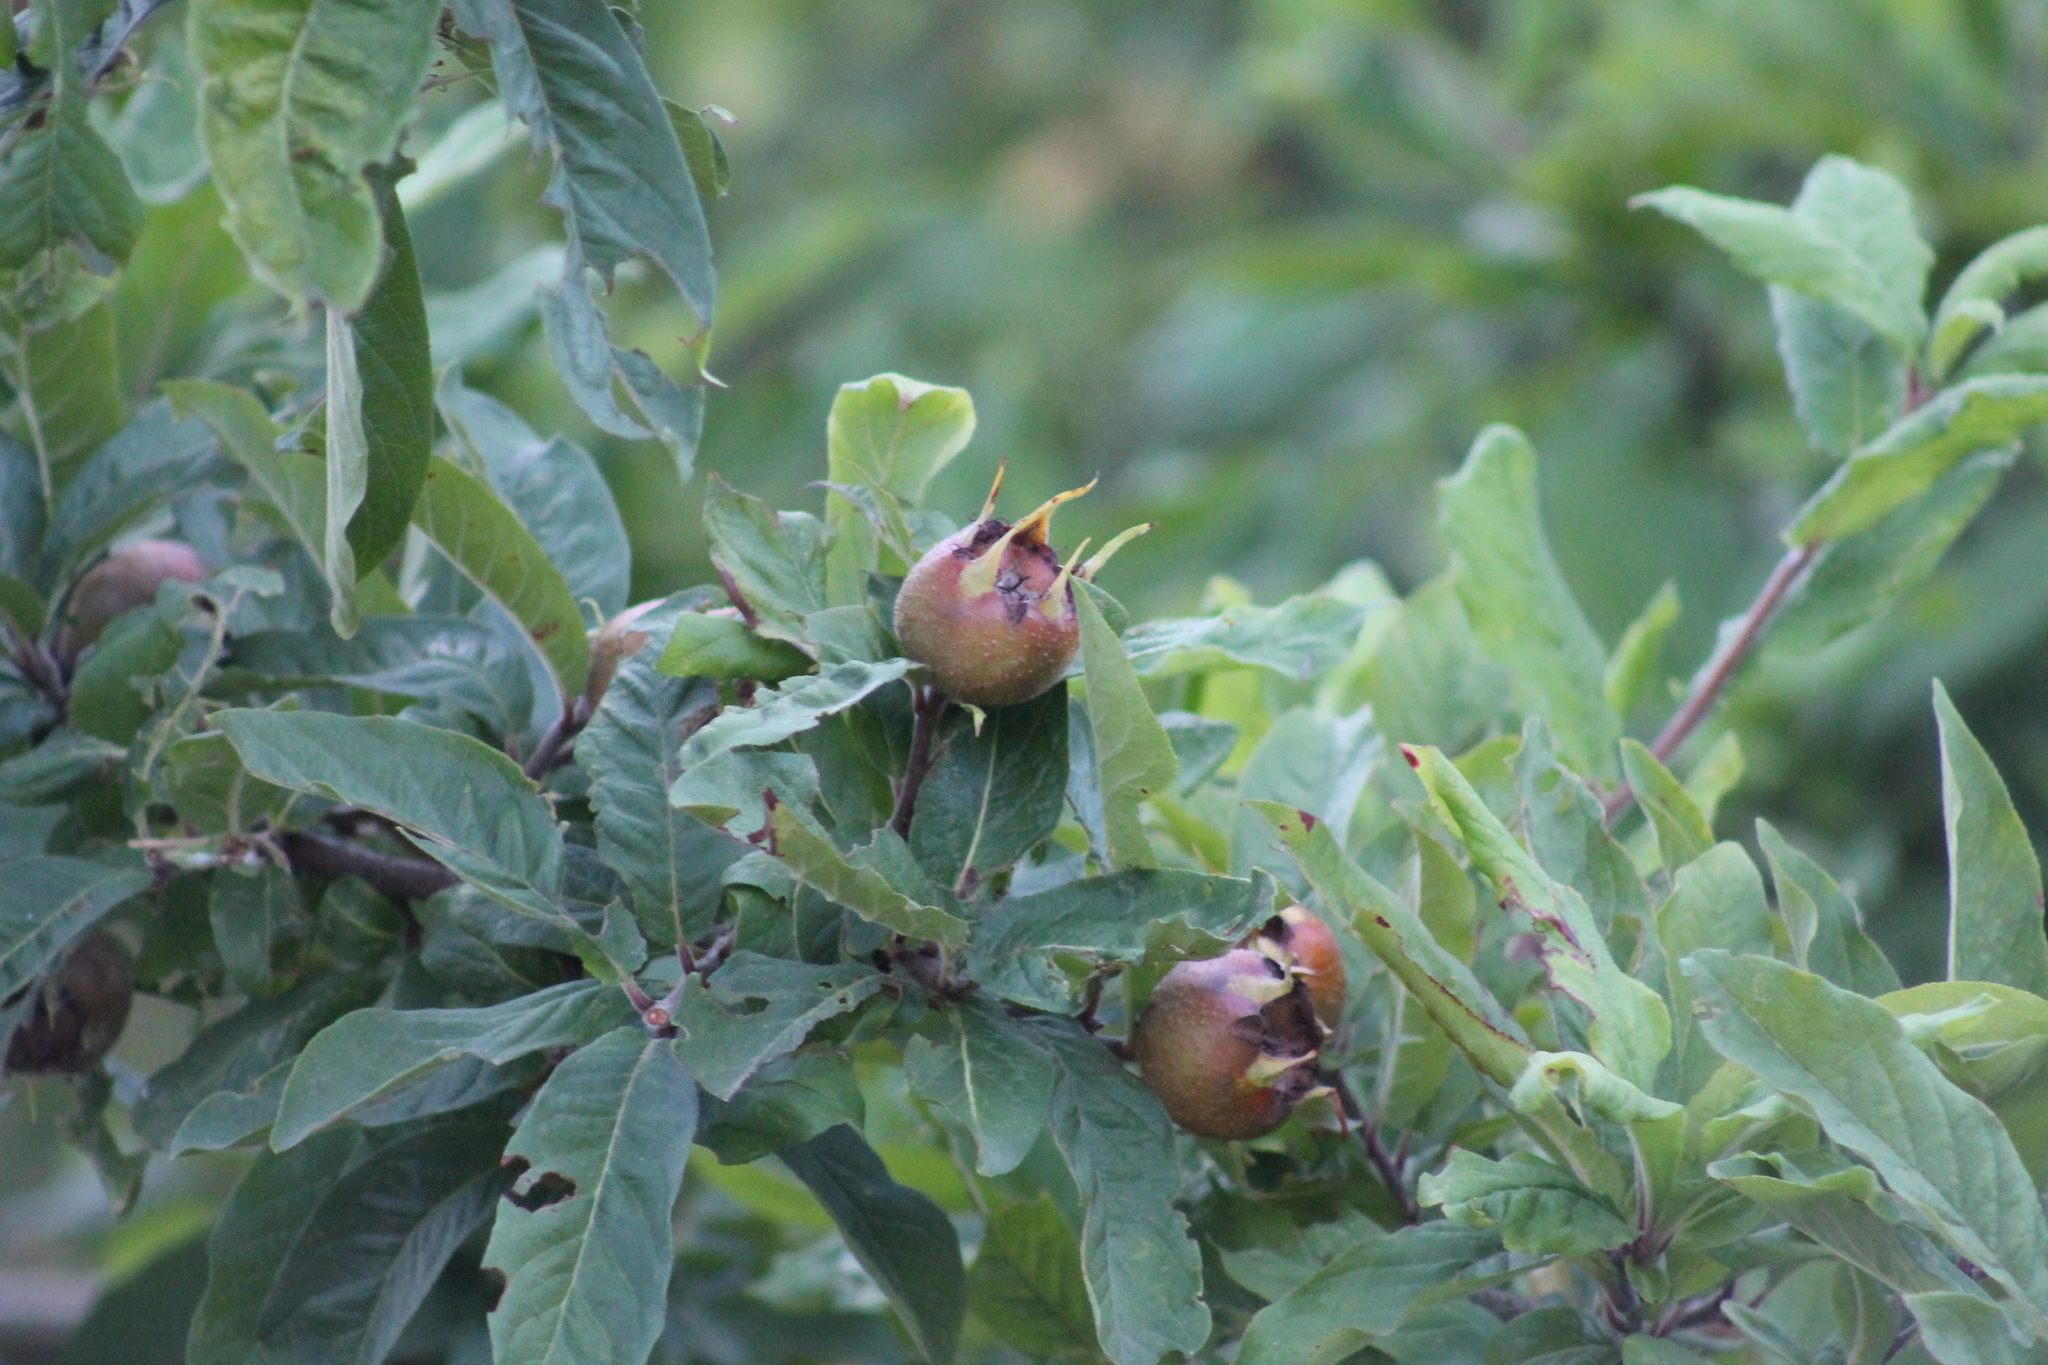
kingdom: Plantae
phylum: Tracheophyta
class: Magnoliopsida
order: Rosales
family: Rosaceae
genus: Mespilus
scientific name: Mespilus germanica
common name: Medlar
